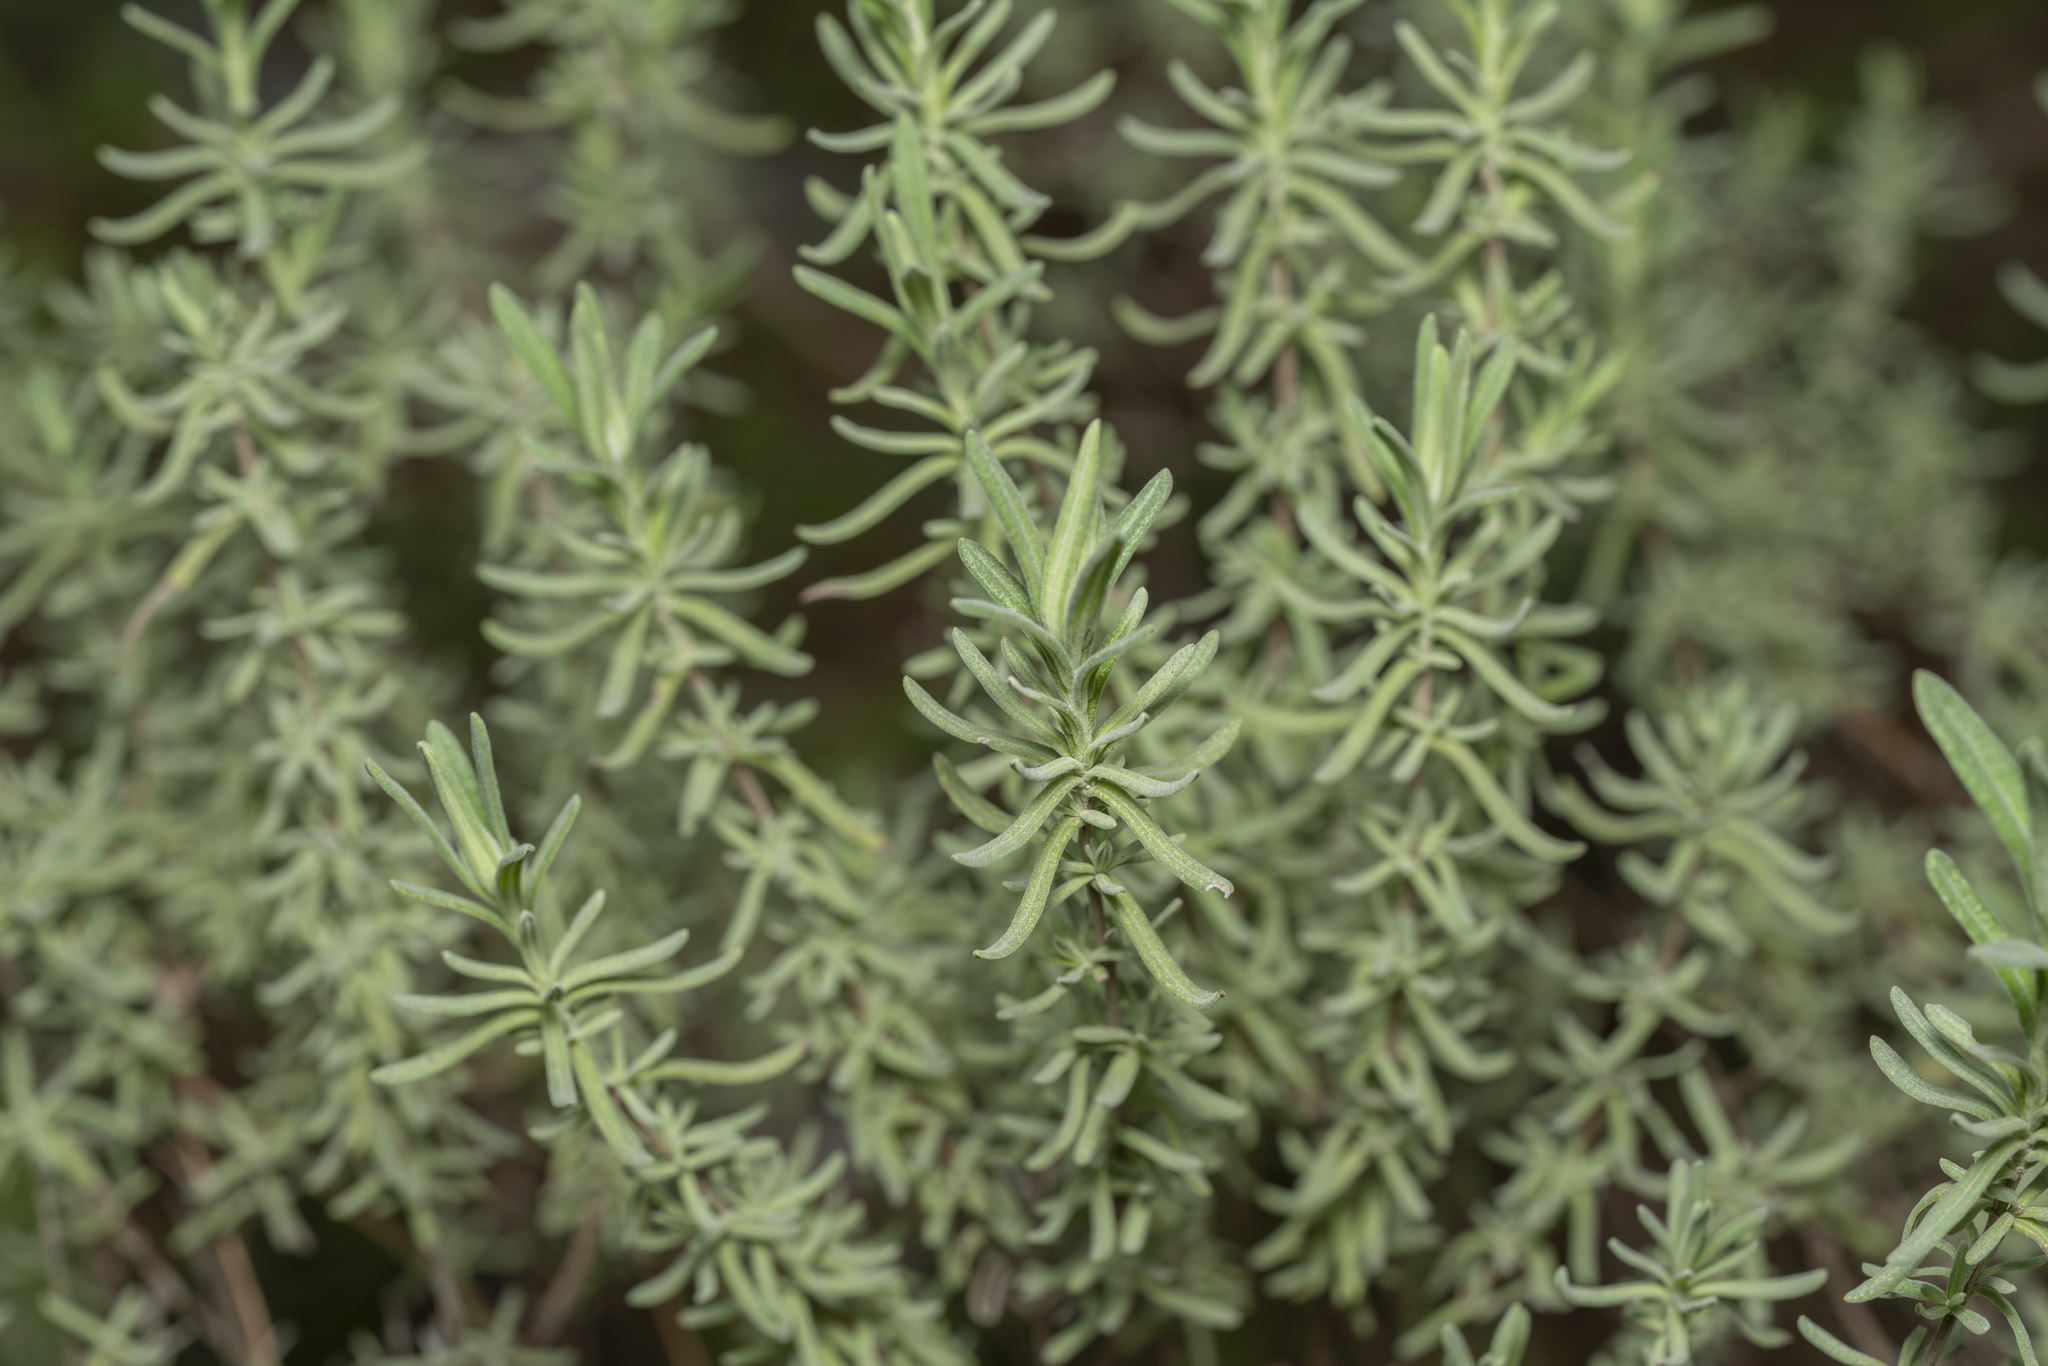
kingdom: Plantae
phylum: Tracheophyta
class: Magnoliopsida
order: Lamiales
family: Lamiaceae
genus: Lavandula
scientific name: Lavandula stoechas
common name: French lavender
